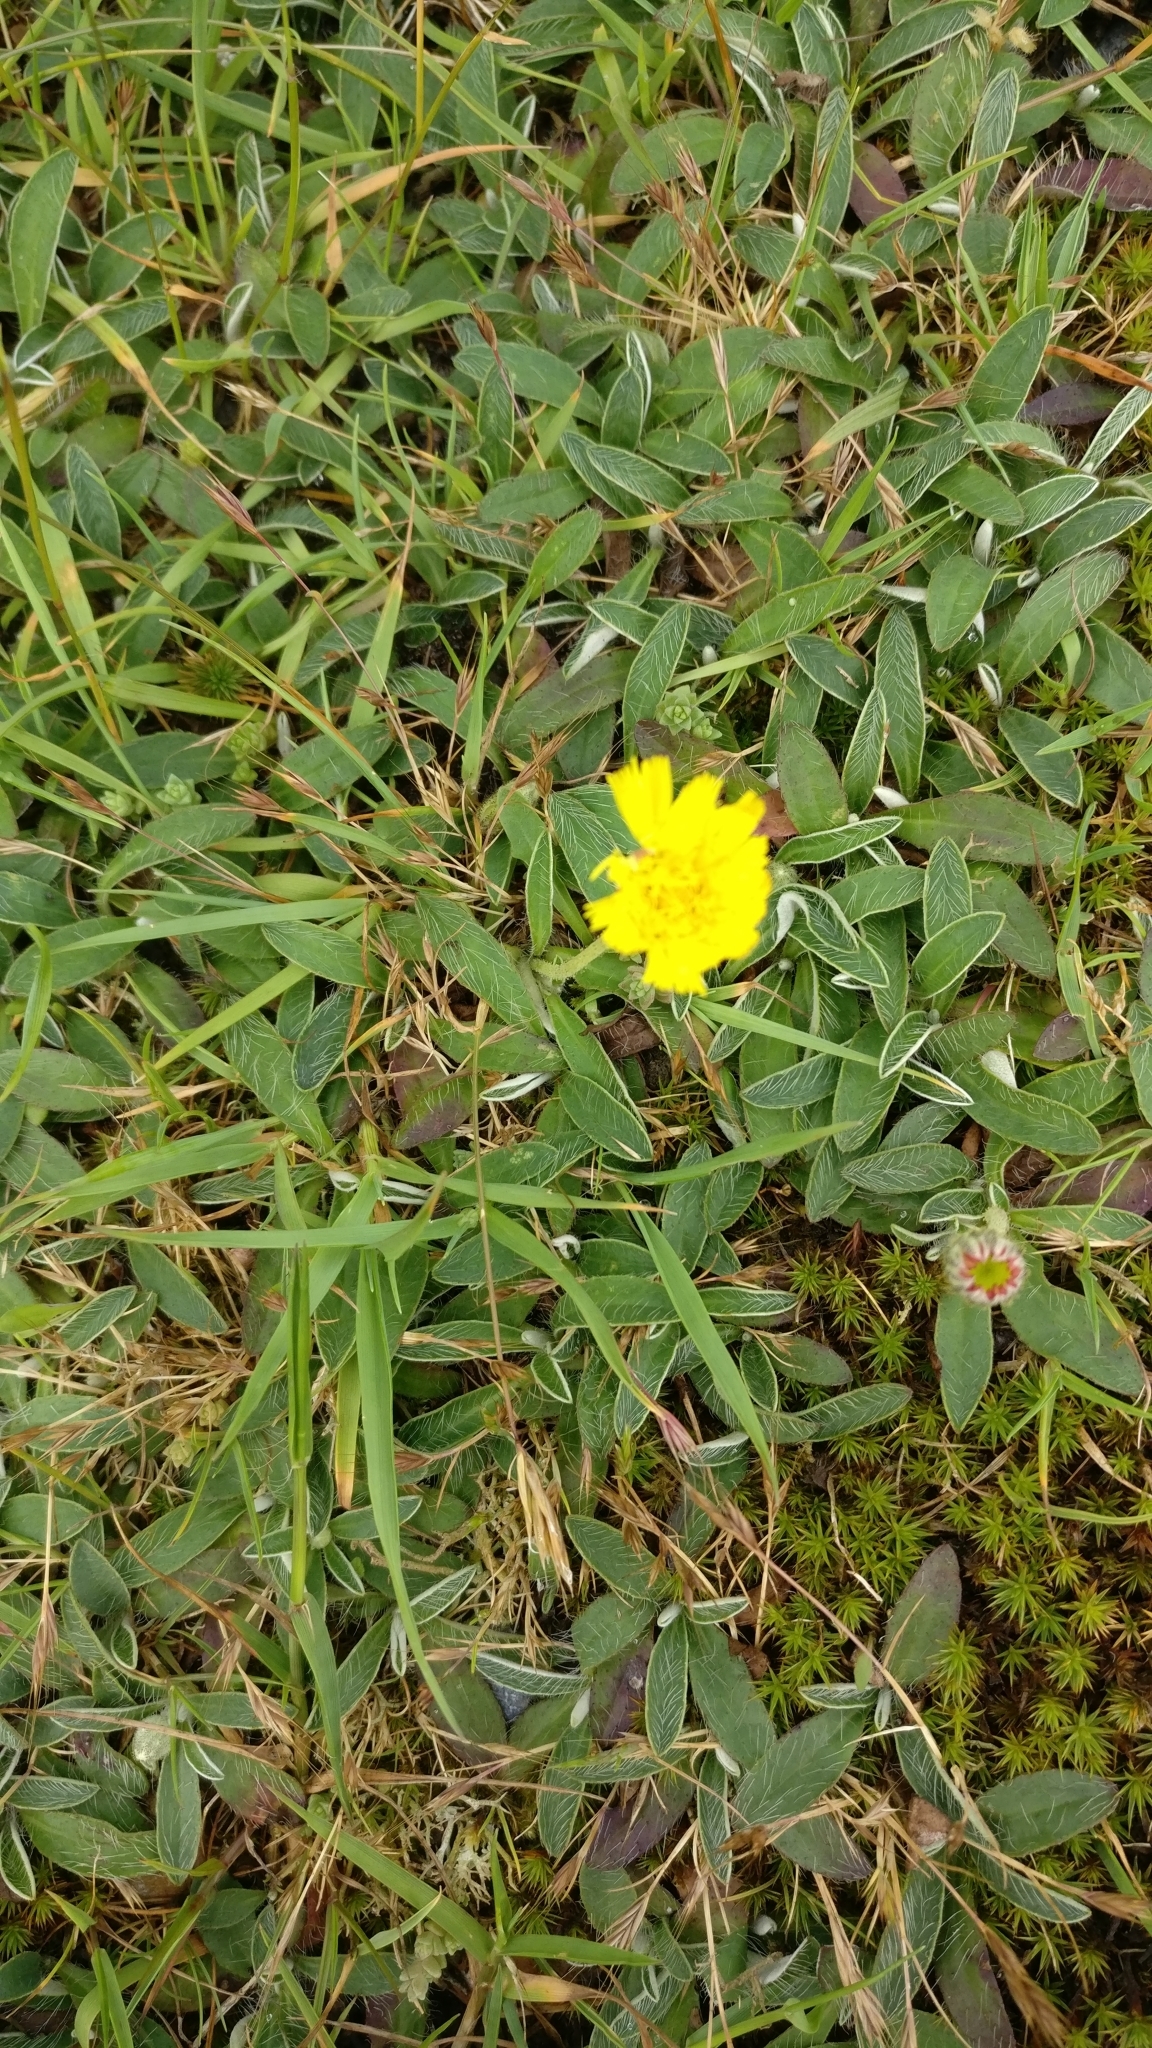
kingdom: Plantae
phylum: Tracheophyta
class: Magnoliopsida
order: Asterales
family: Asteraceae
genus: Pilosella
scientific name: Pilosella officinarum
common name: Mouse-ear hawkweed
